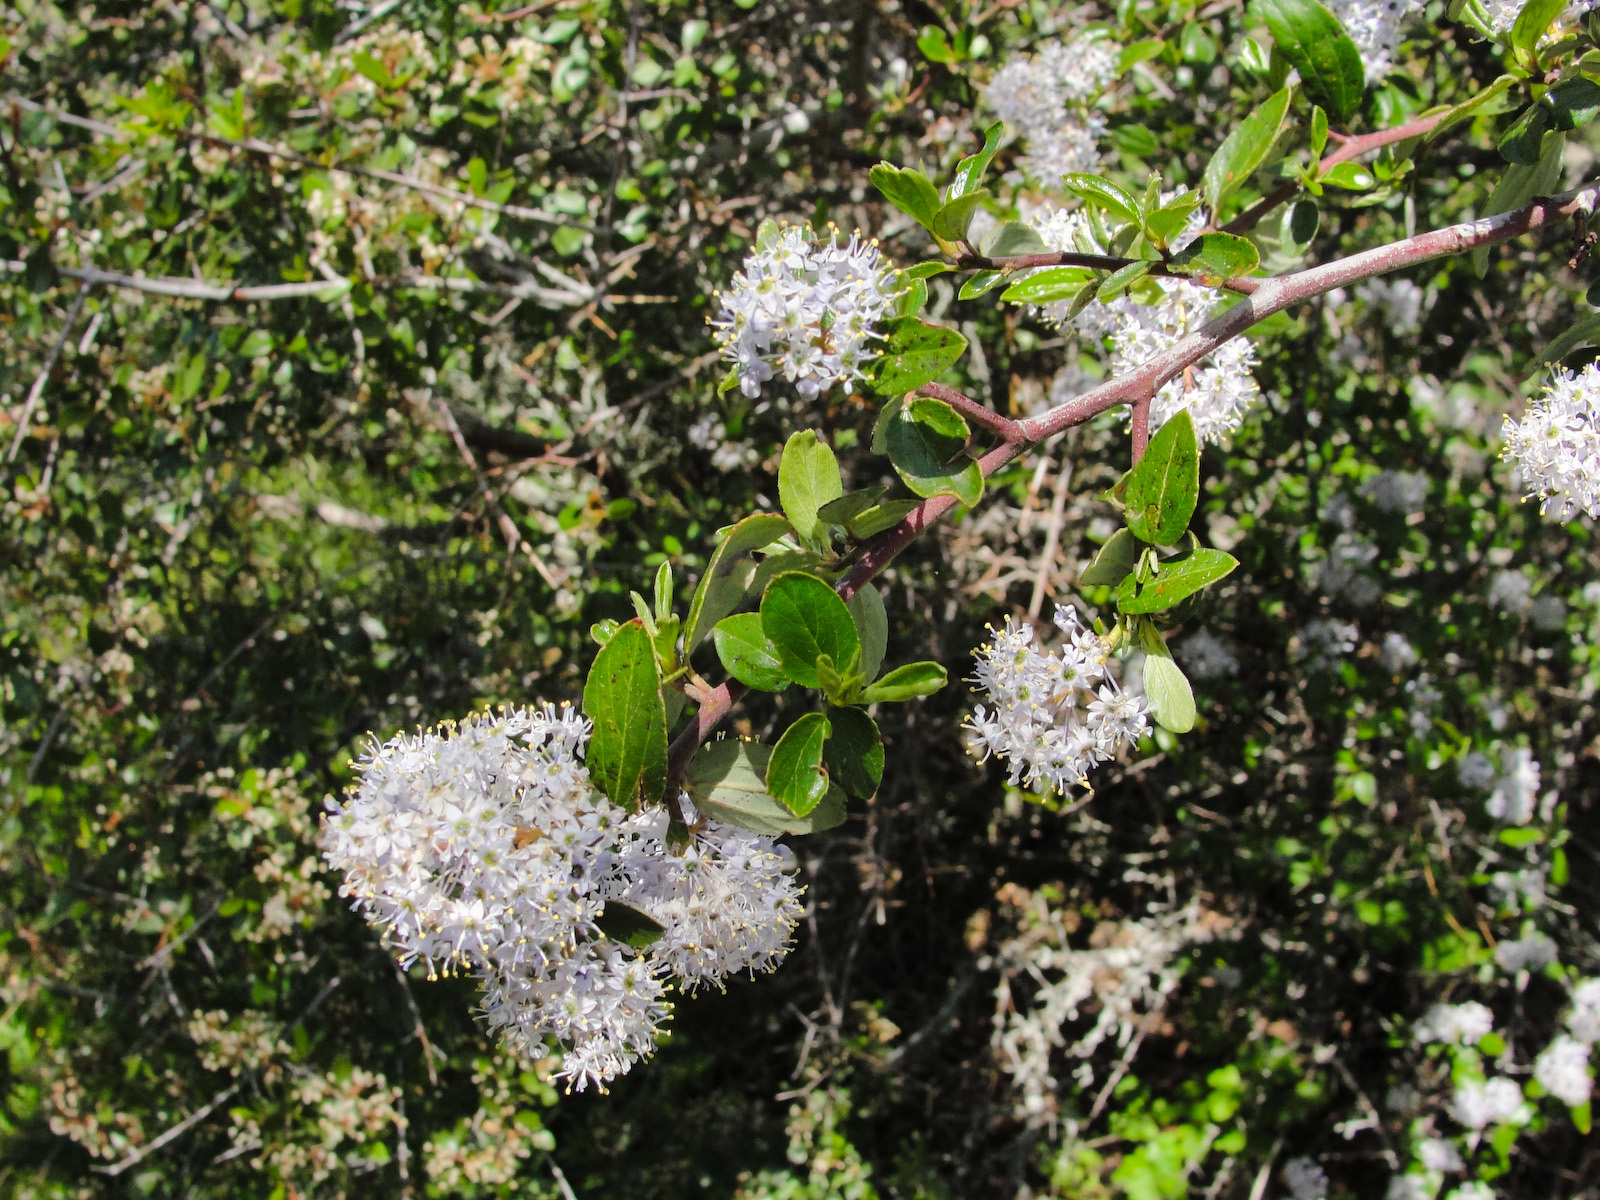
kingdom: Plantae
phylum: Tracheophyta
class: Magnoliopsida
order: Rosales
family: Rhamnaceae
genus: Ceanothus
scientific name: Ceanothus oliganthus
